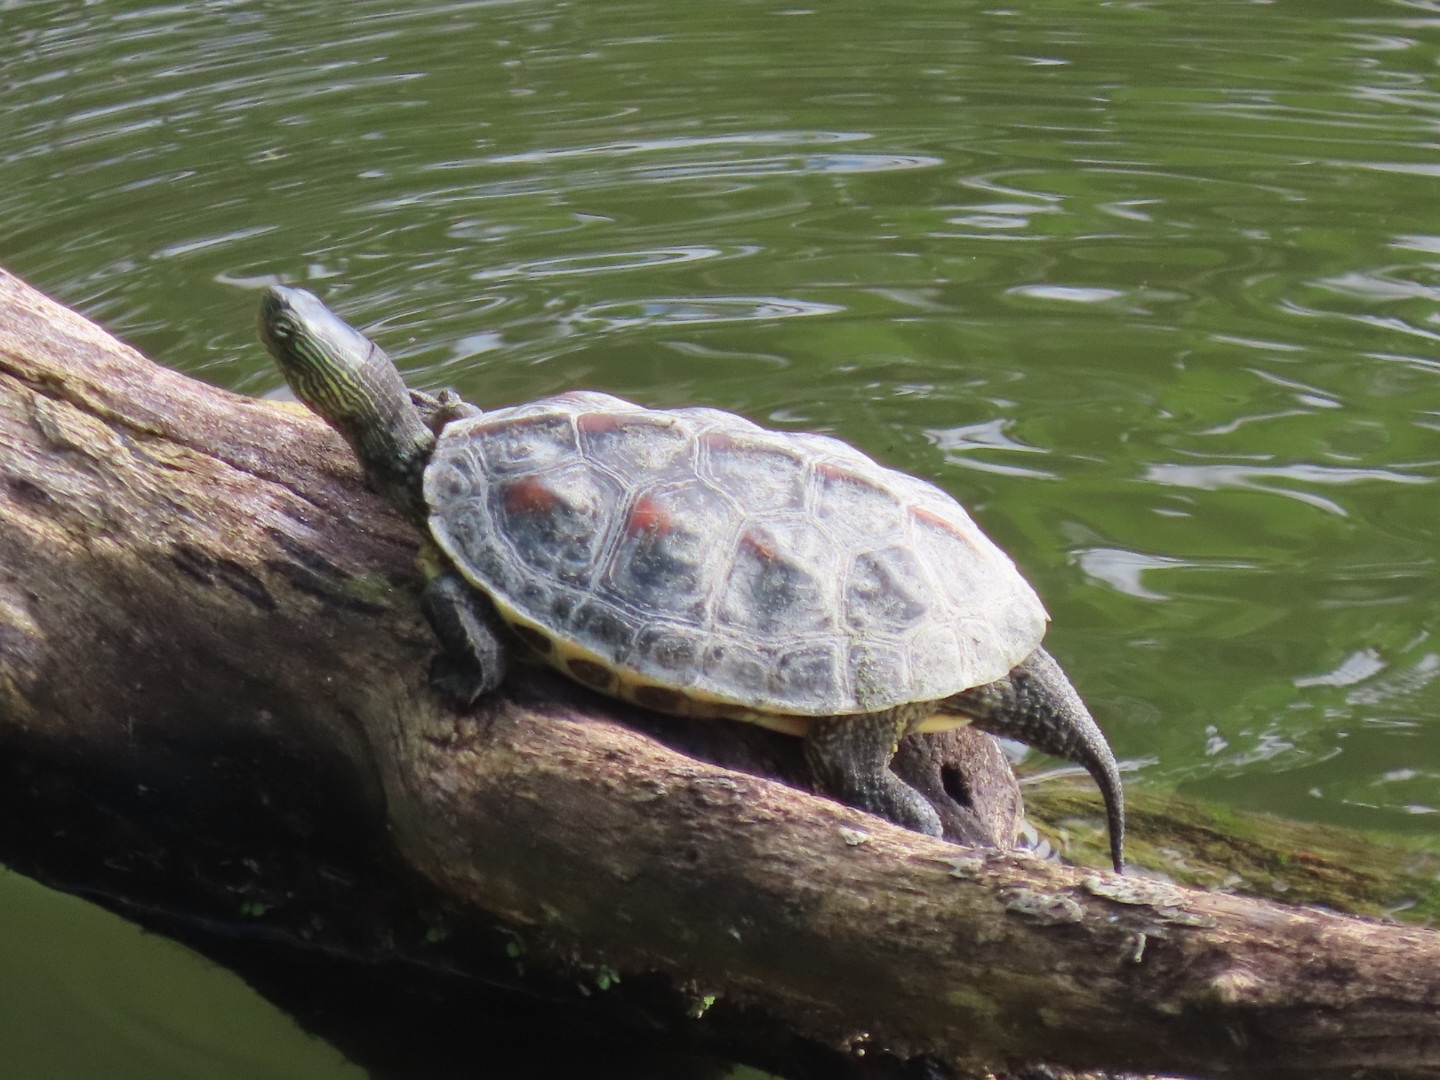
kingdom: Animalia
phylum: Chordata
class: Testudines
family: Geoemydidae
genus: Mauremys
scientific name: Mauremys sinensis
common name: Chinese stripe-necked turtle
